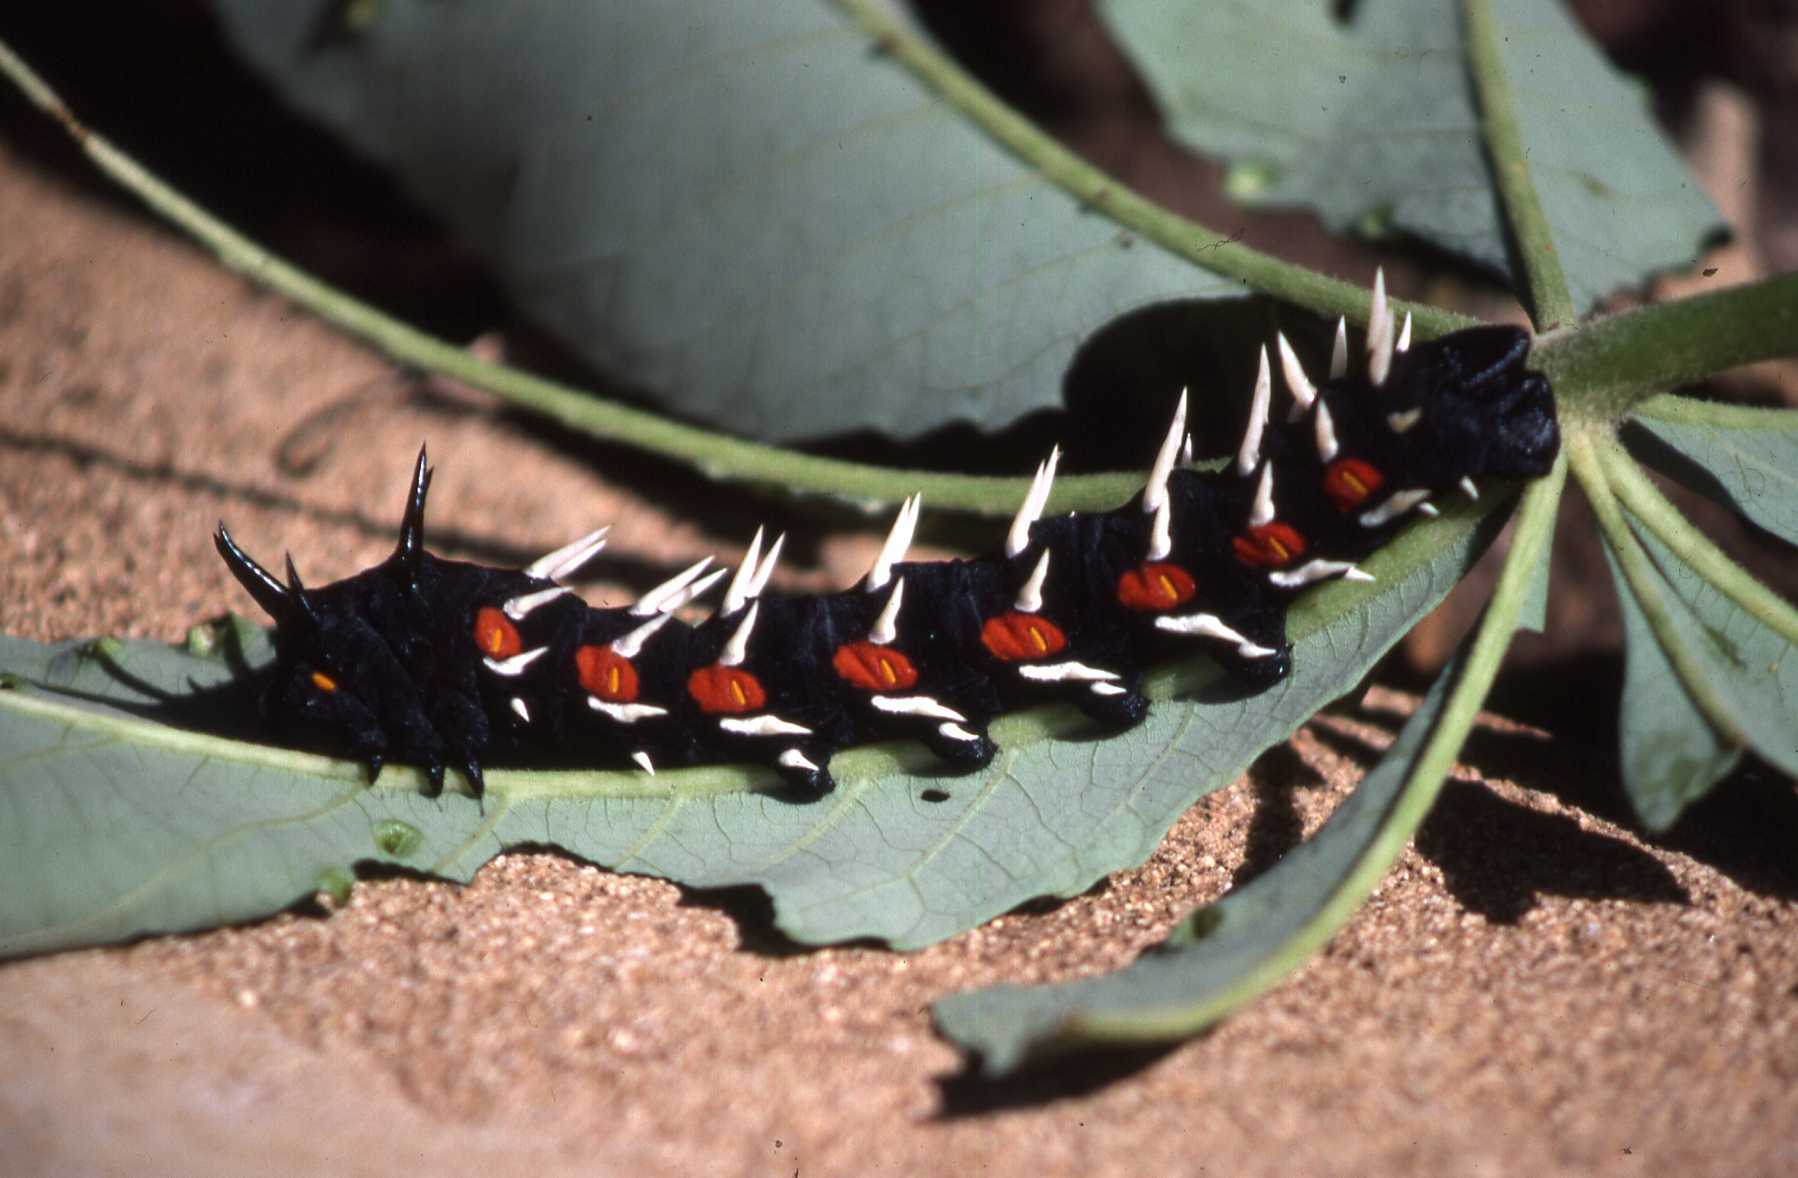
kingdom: Animalia
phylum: Arthropoda
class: Insecta
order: Lepidoptera
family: Saturniidae
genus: Bunaea
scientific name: Bunaea alcinoe
